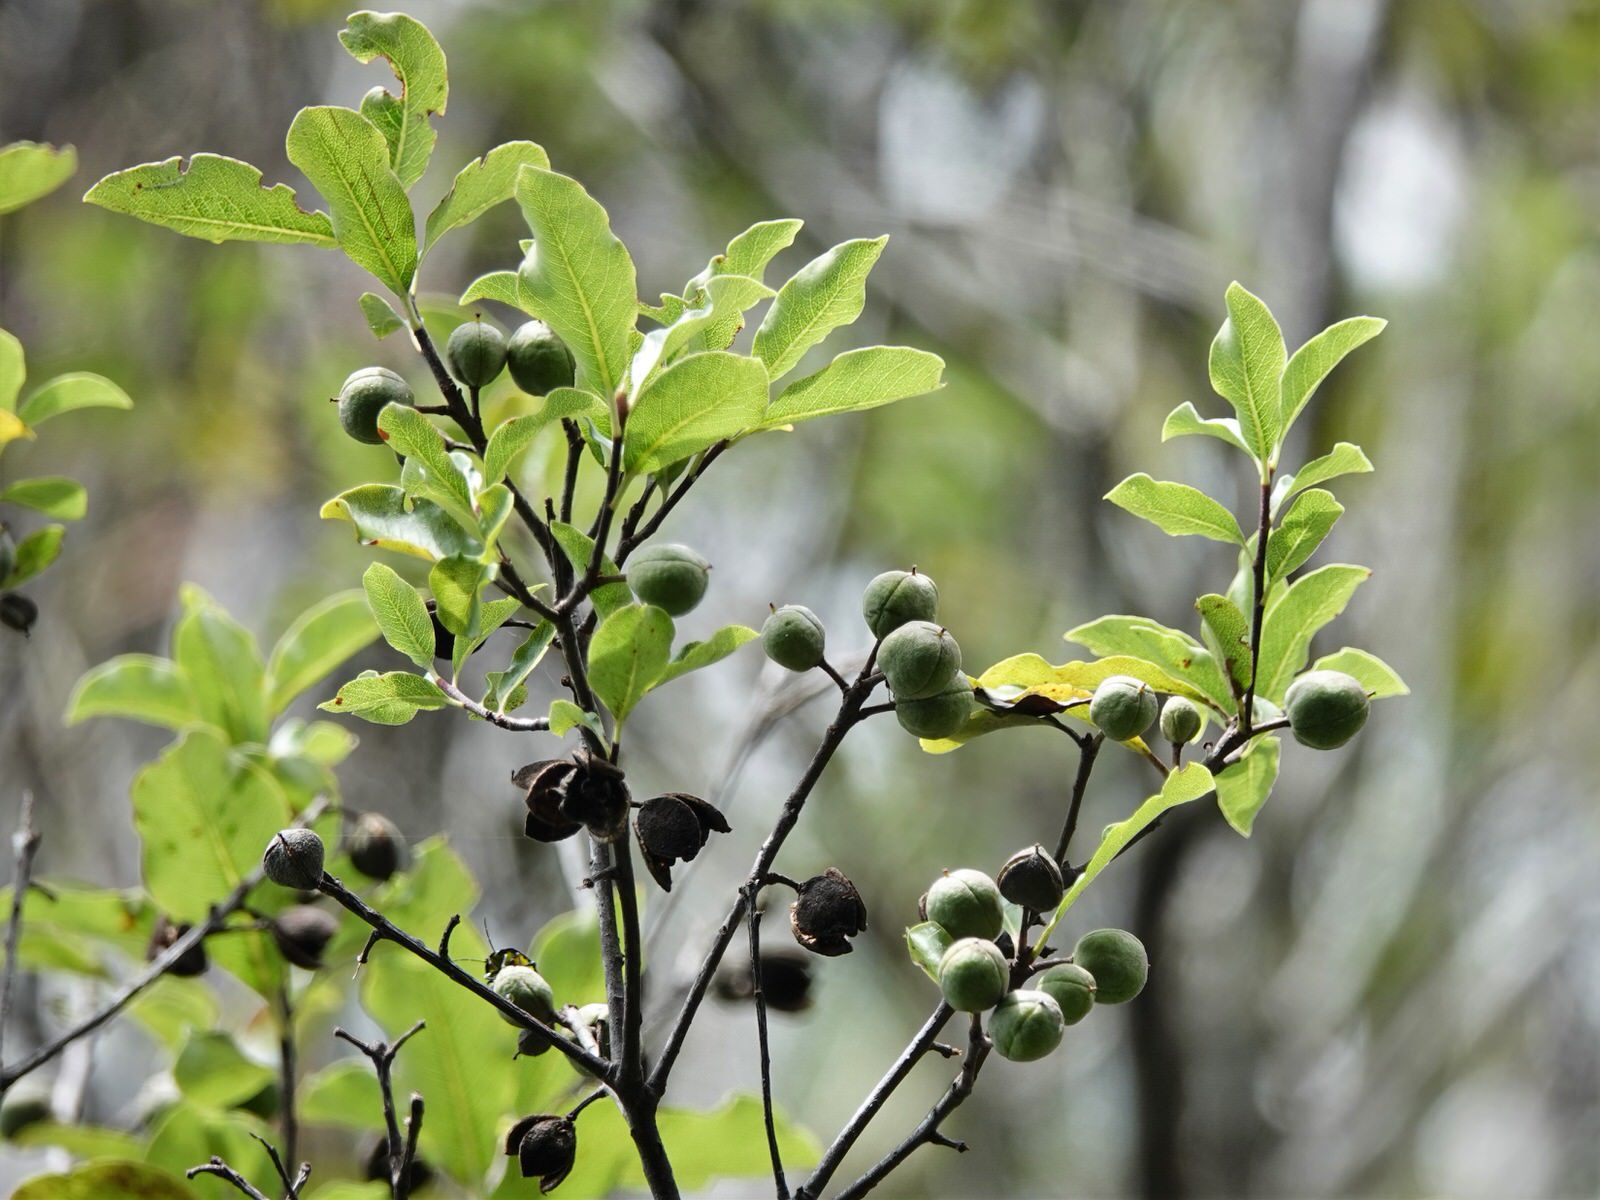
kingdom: Plantae
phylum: Tracheophyta
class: Magnoliopsida
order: Apiales
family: Pittosporaceae
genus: Pittosporum
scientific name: Pittosporum tenuifolium
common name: Kohuhu
